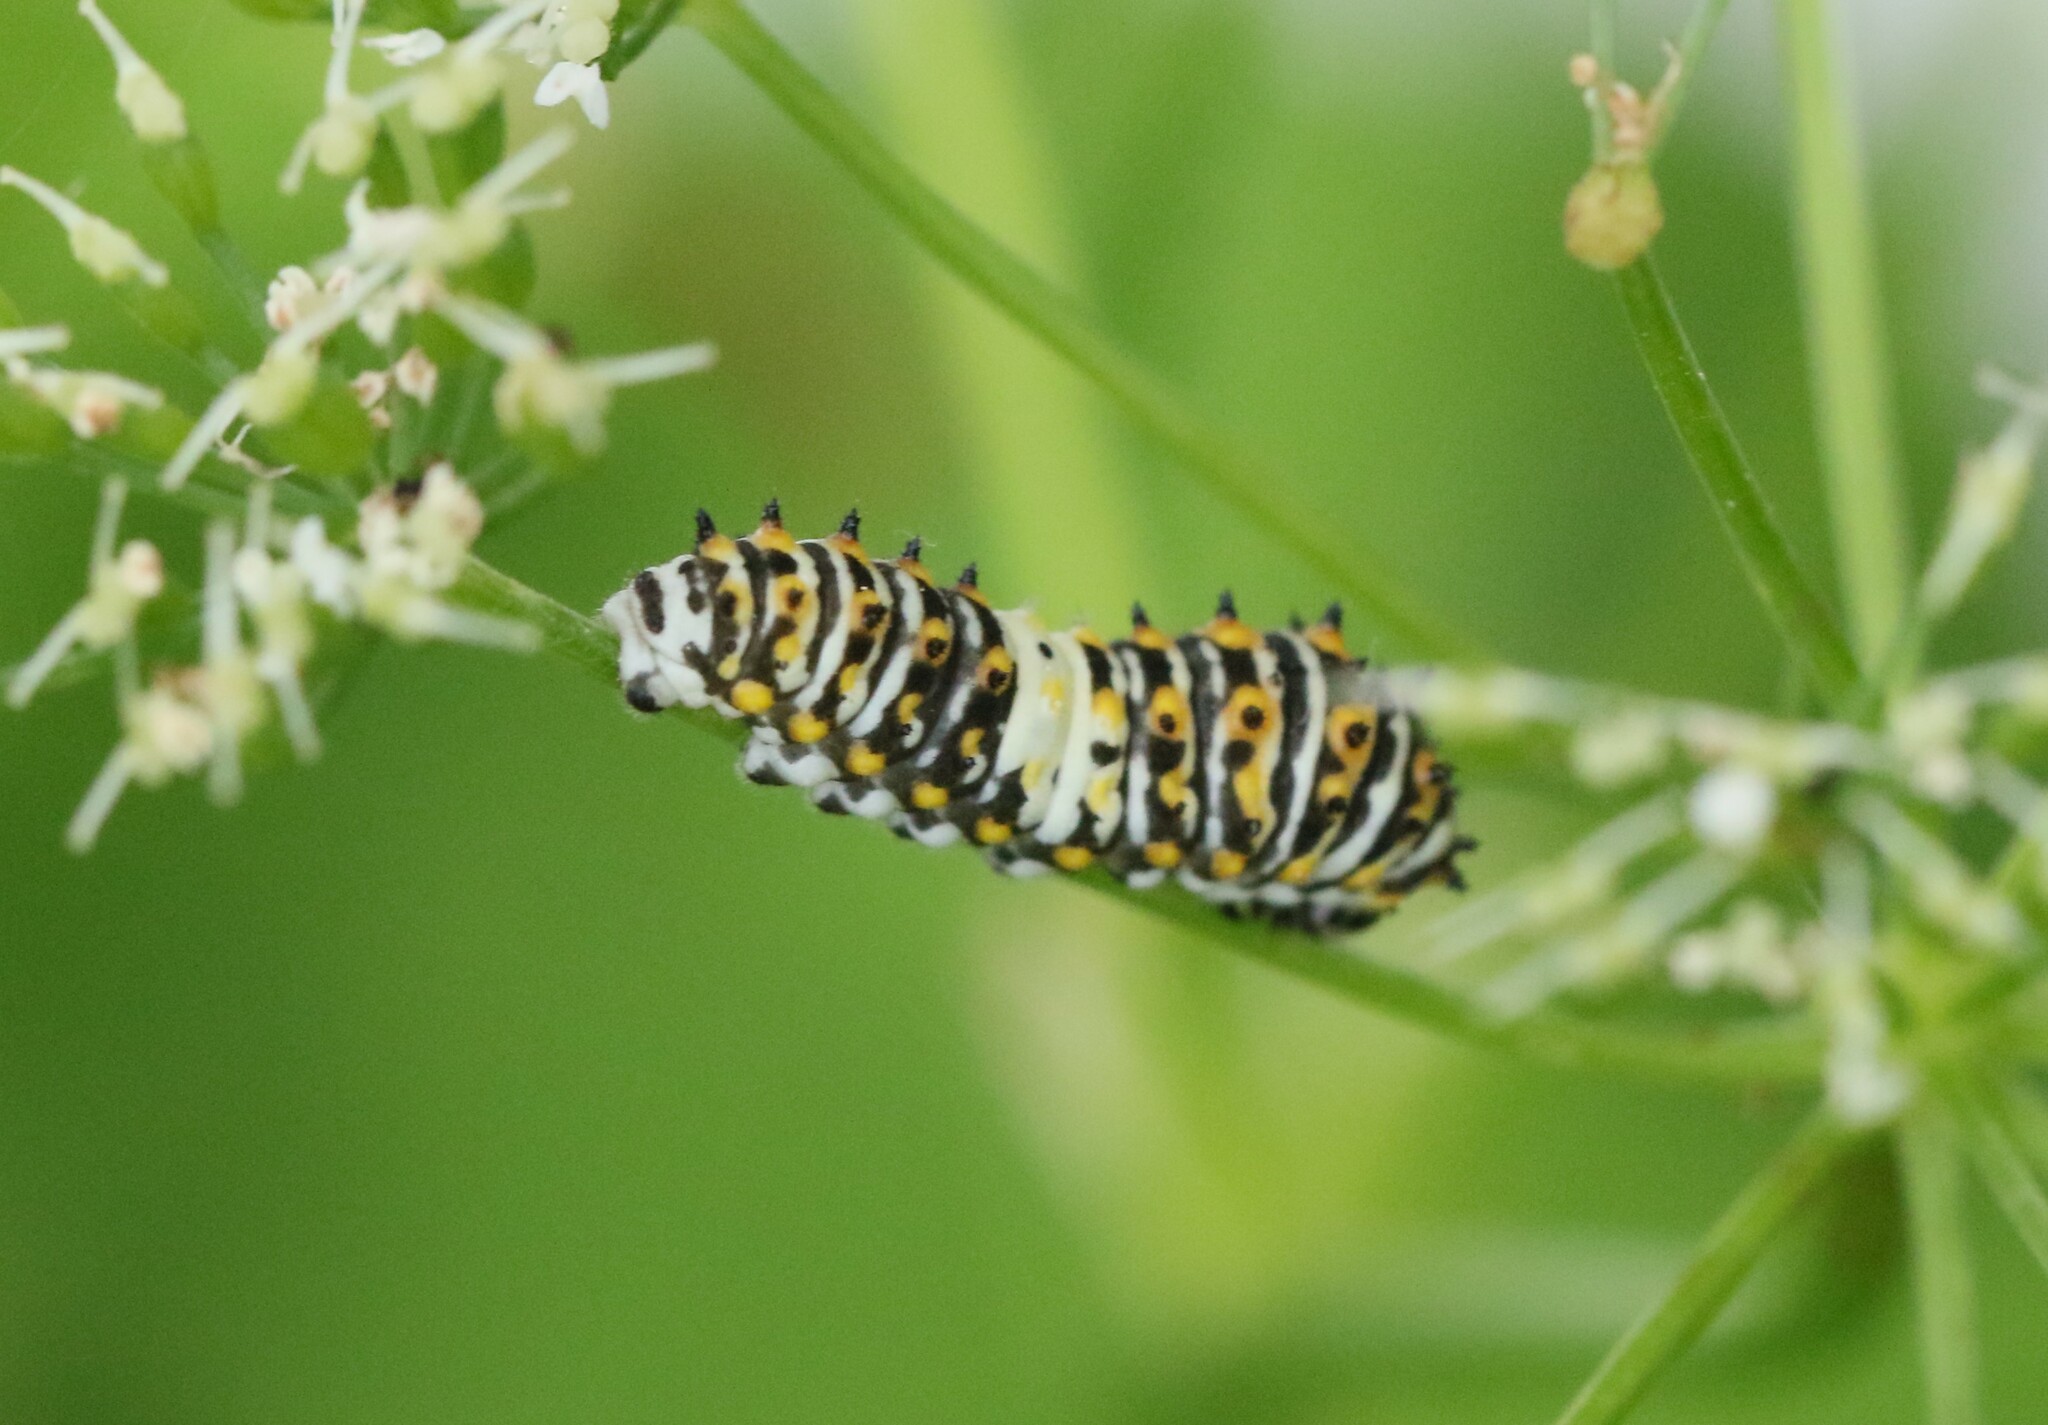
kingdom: Animalia
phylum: Arthropoda
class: Insecta
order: Lepidoptera
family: Papilionidae
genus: Papilio
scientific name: Papilio polyxenes
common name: Black swallowtail
